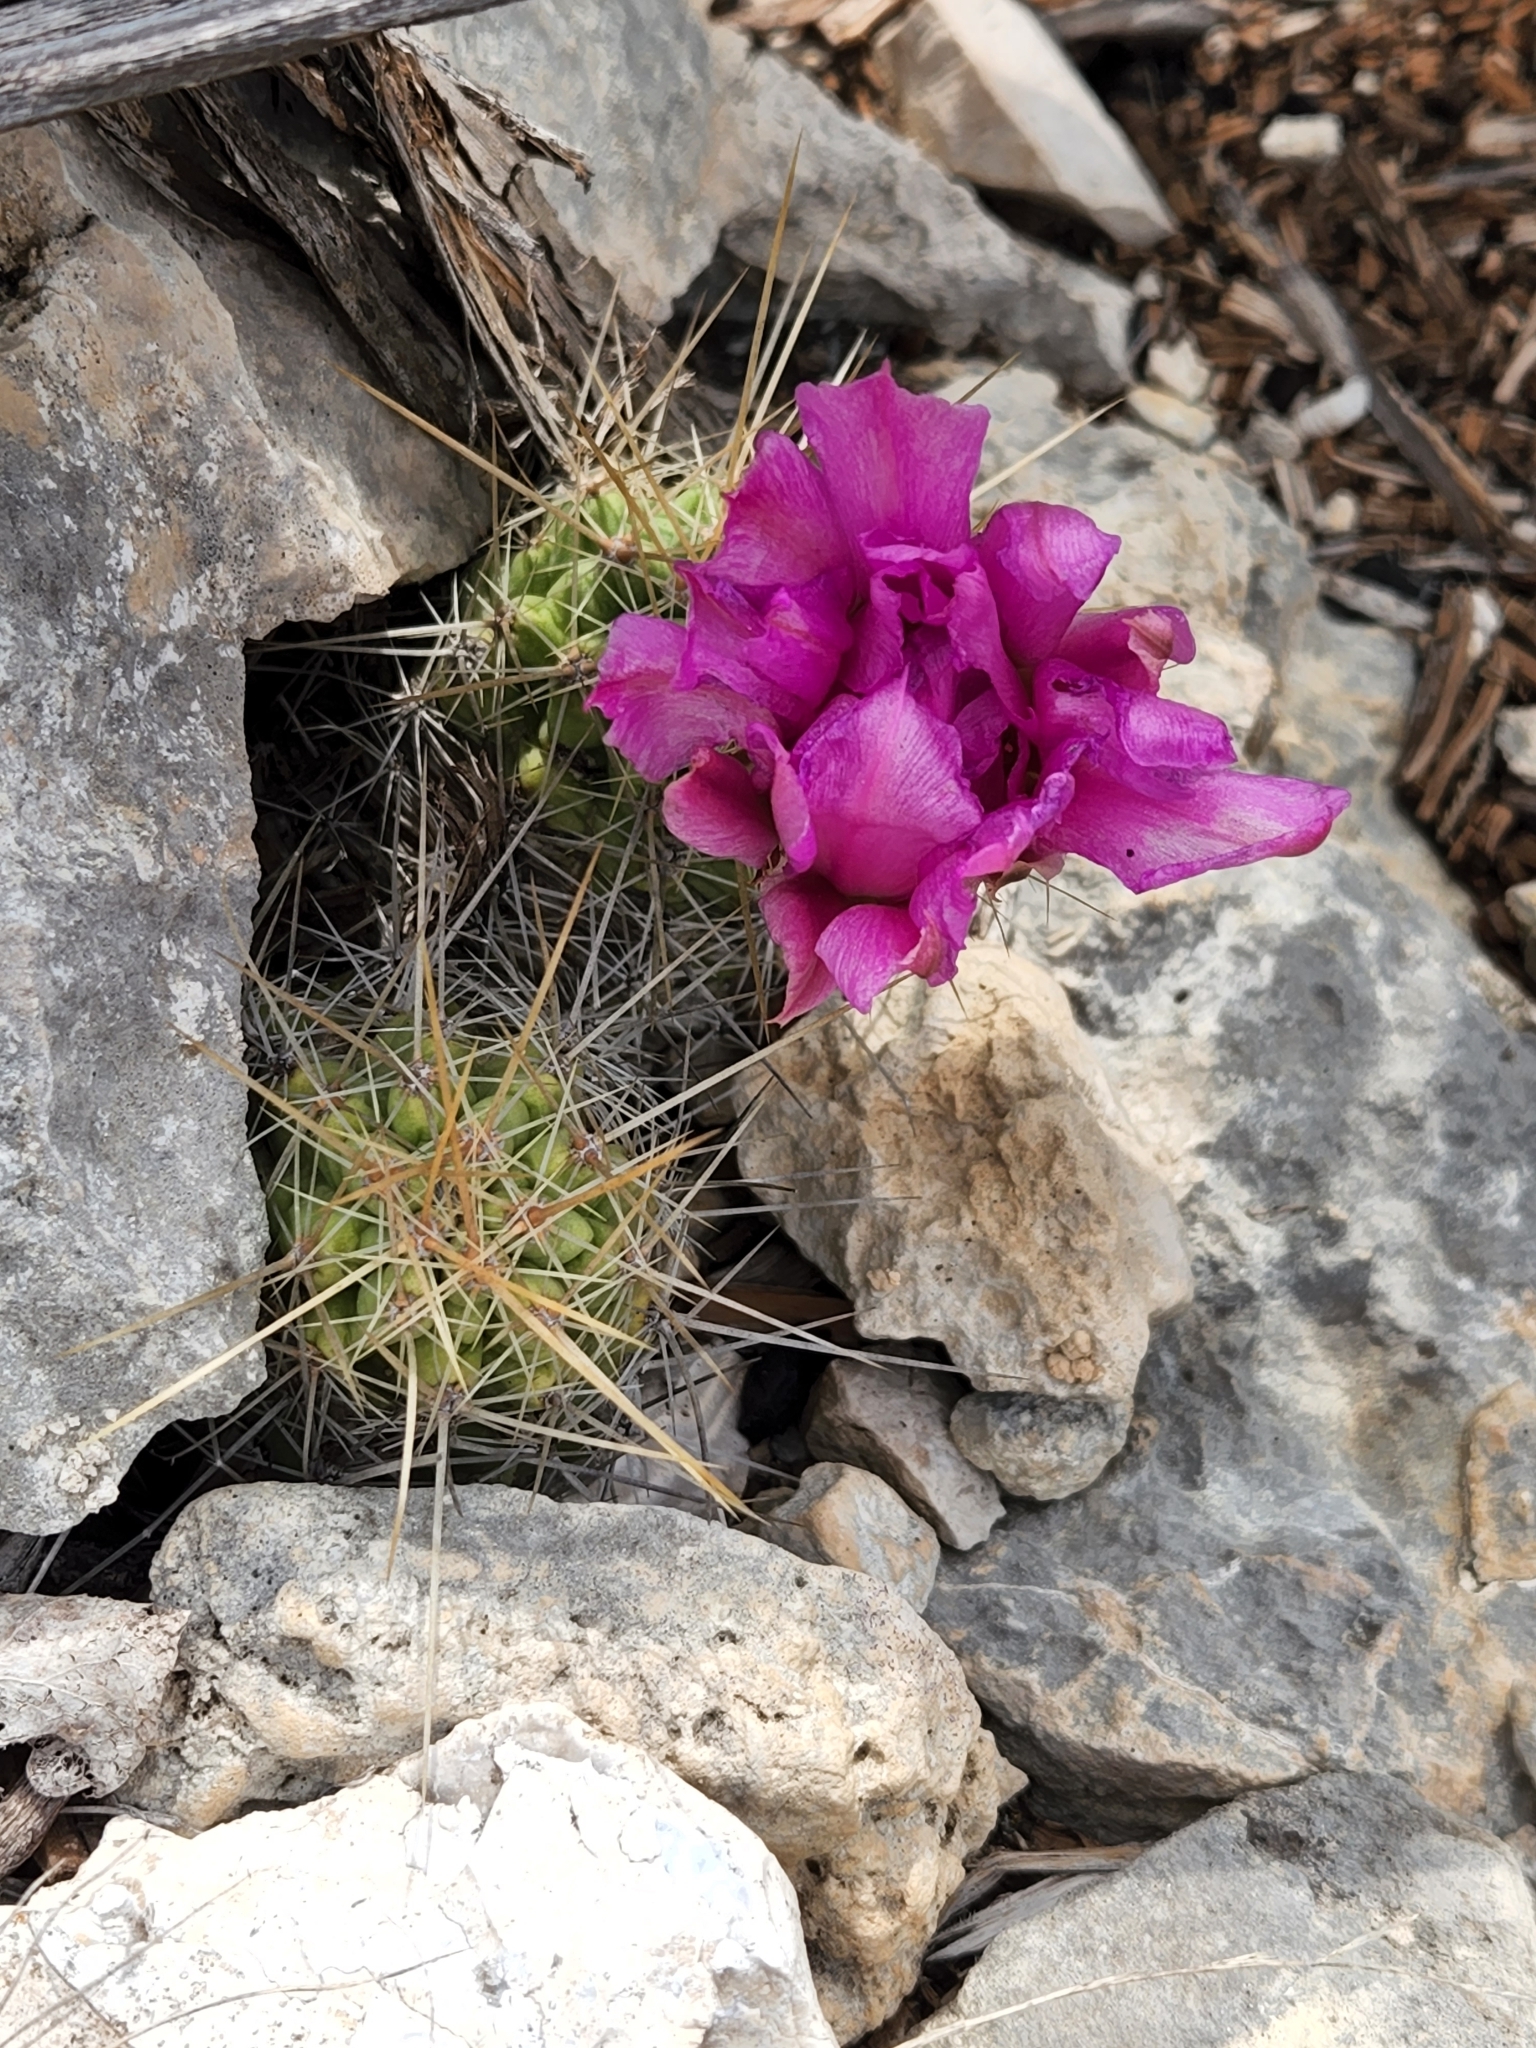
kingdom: Plantae
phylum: Tracheophyta
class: Magnoliopsida
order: Caryophyllales
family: Cactaceae
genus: Echinocereus
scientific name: Echinocereus enneacanthus
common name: Pitaya
